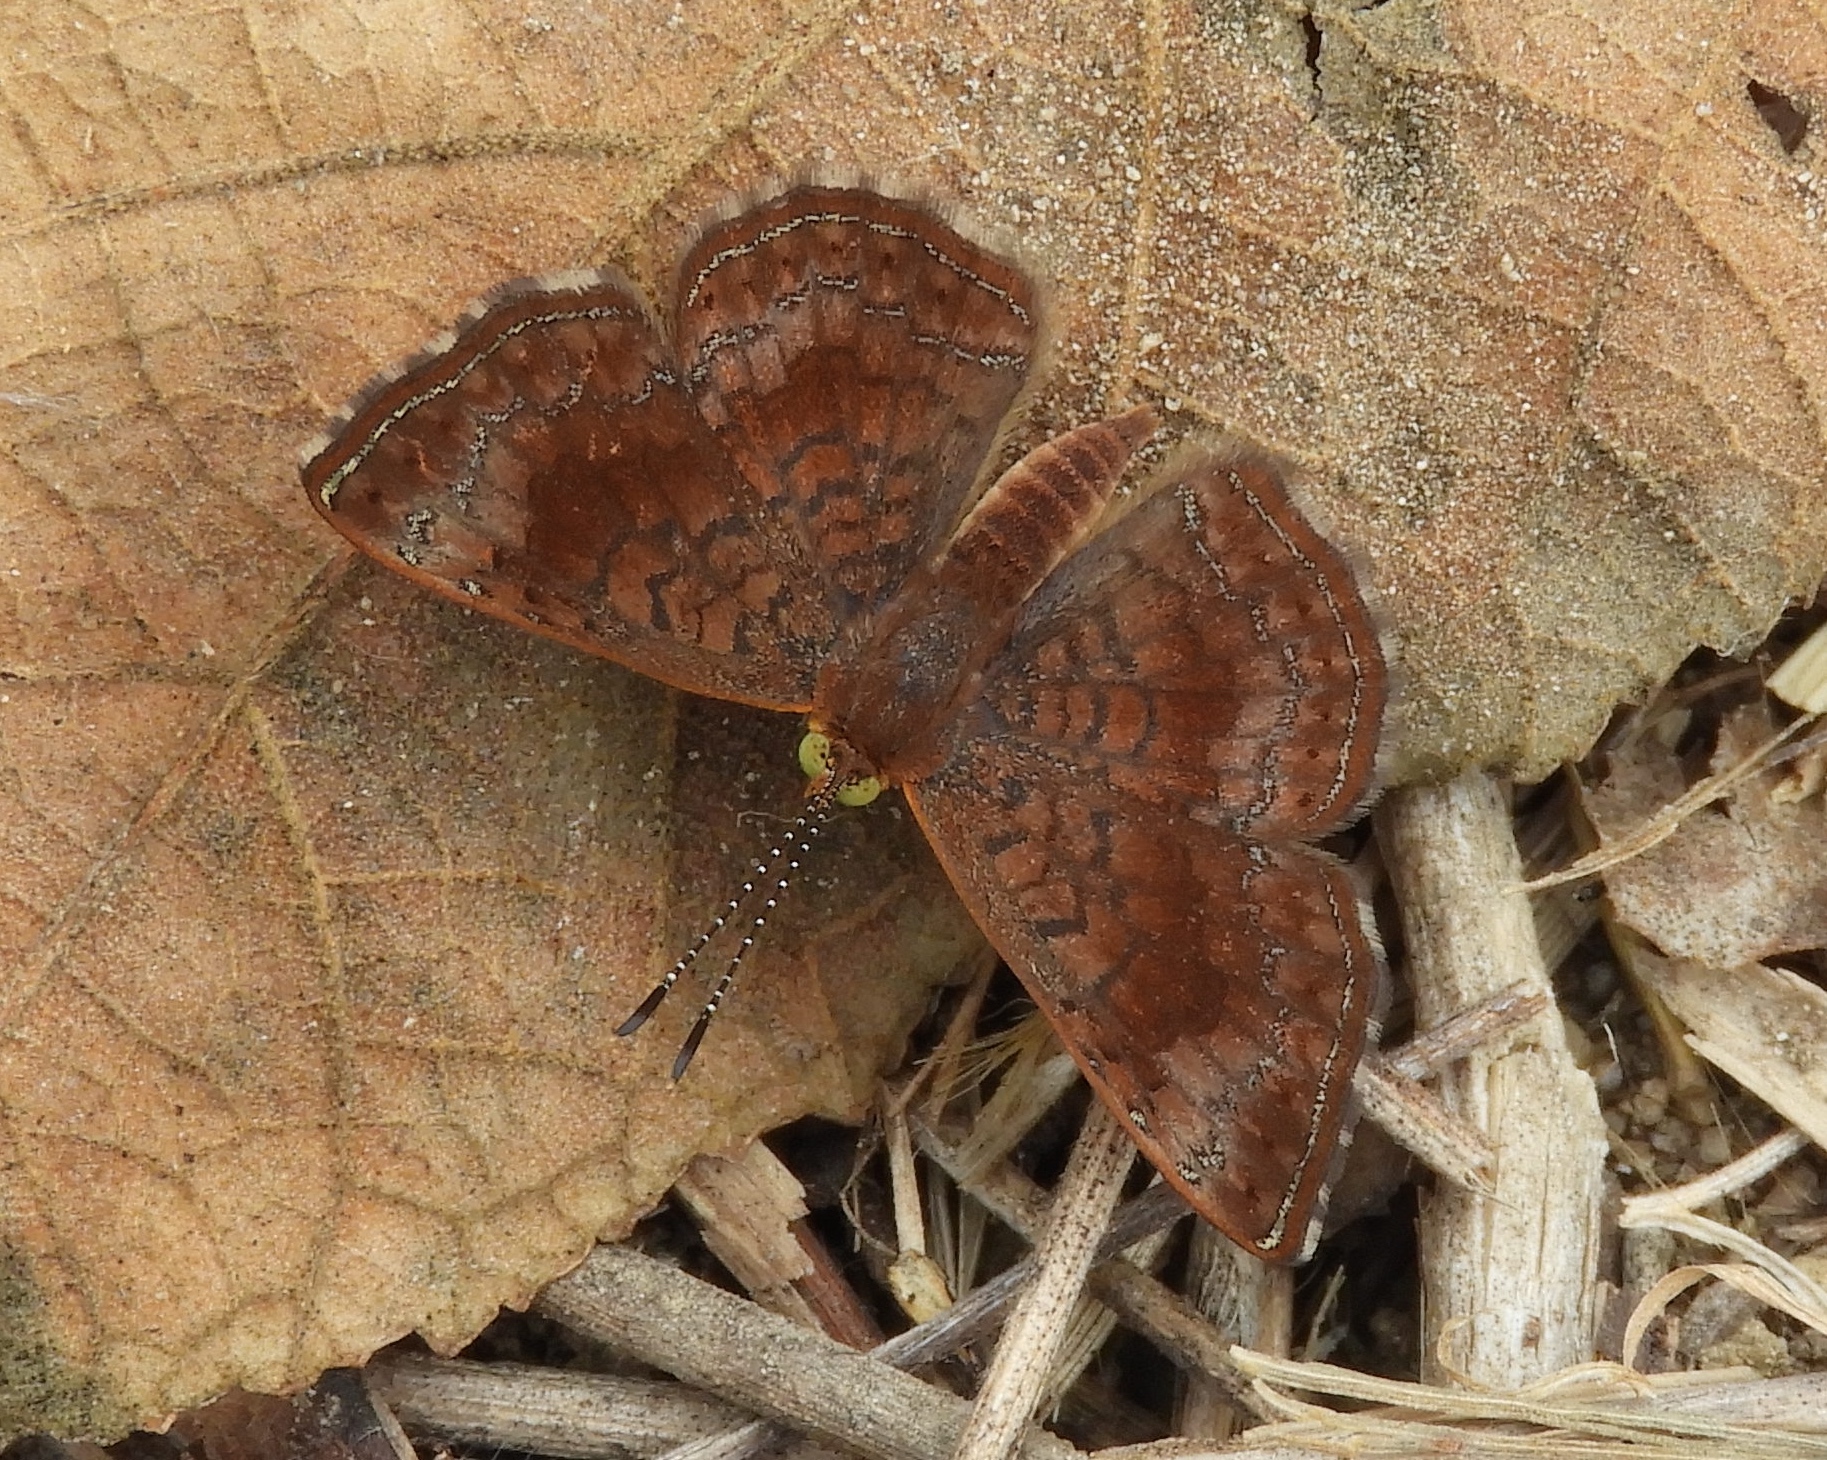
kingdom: Animalia
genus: Calephelis
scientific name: Calephelis sinaloensis
